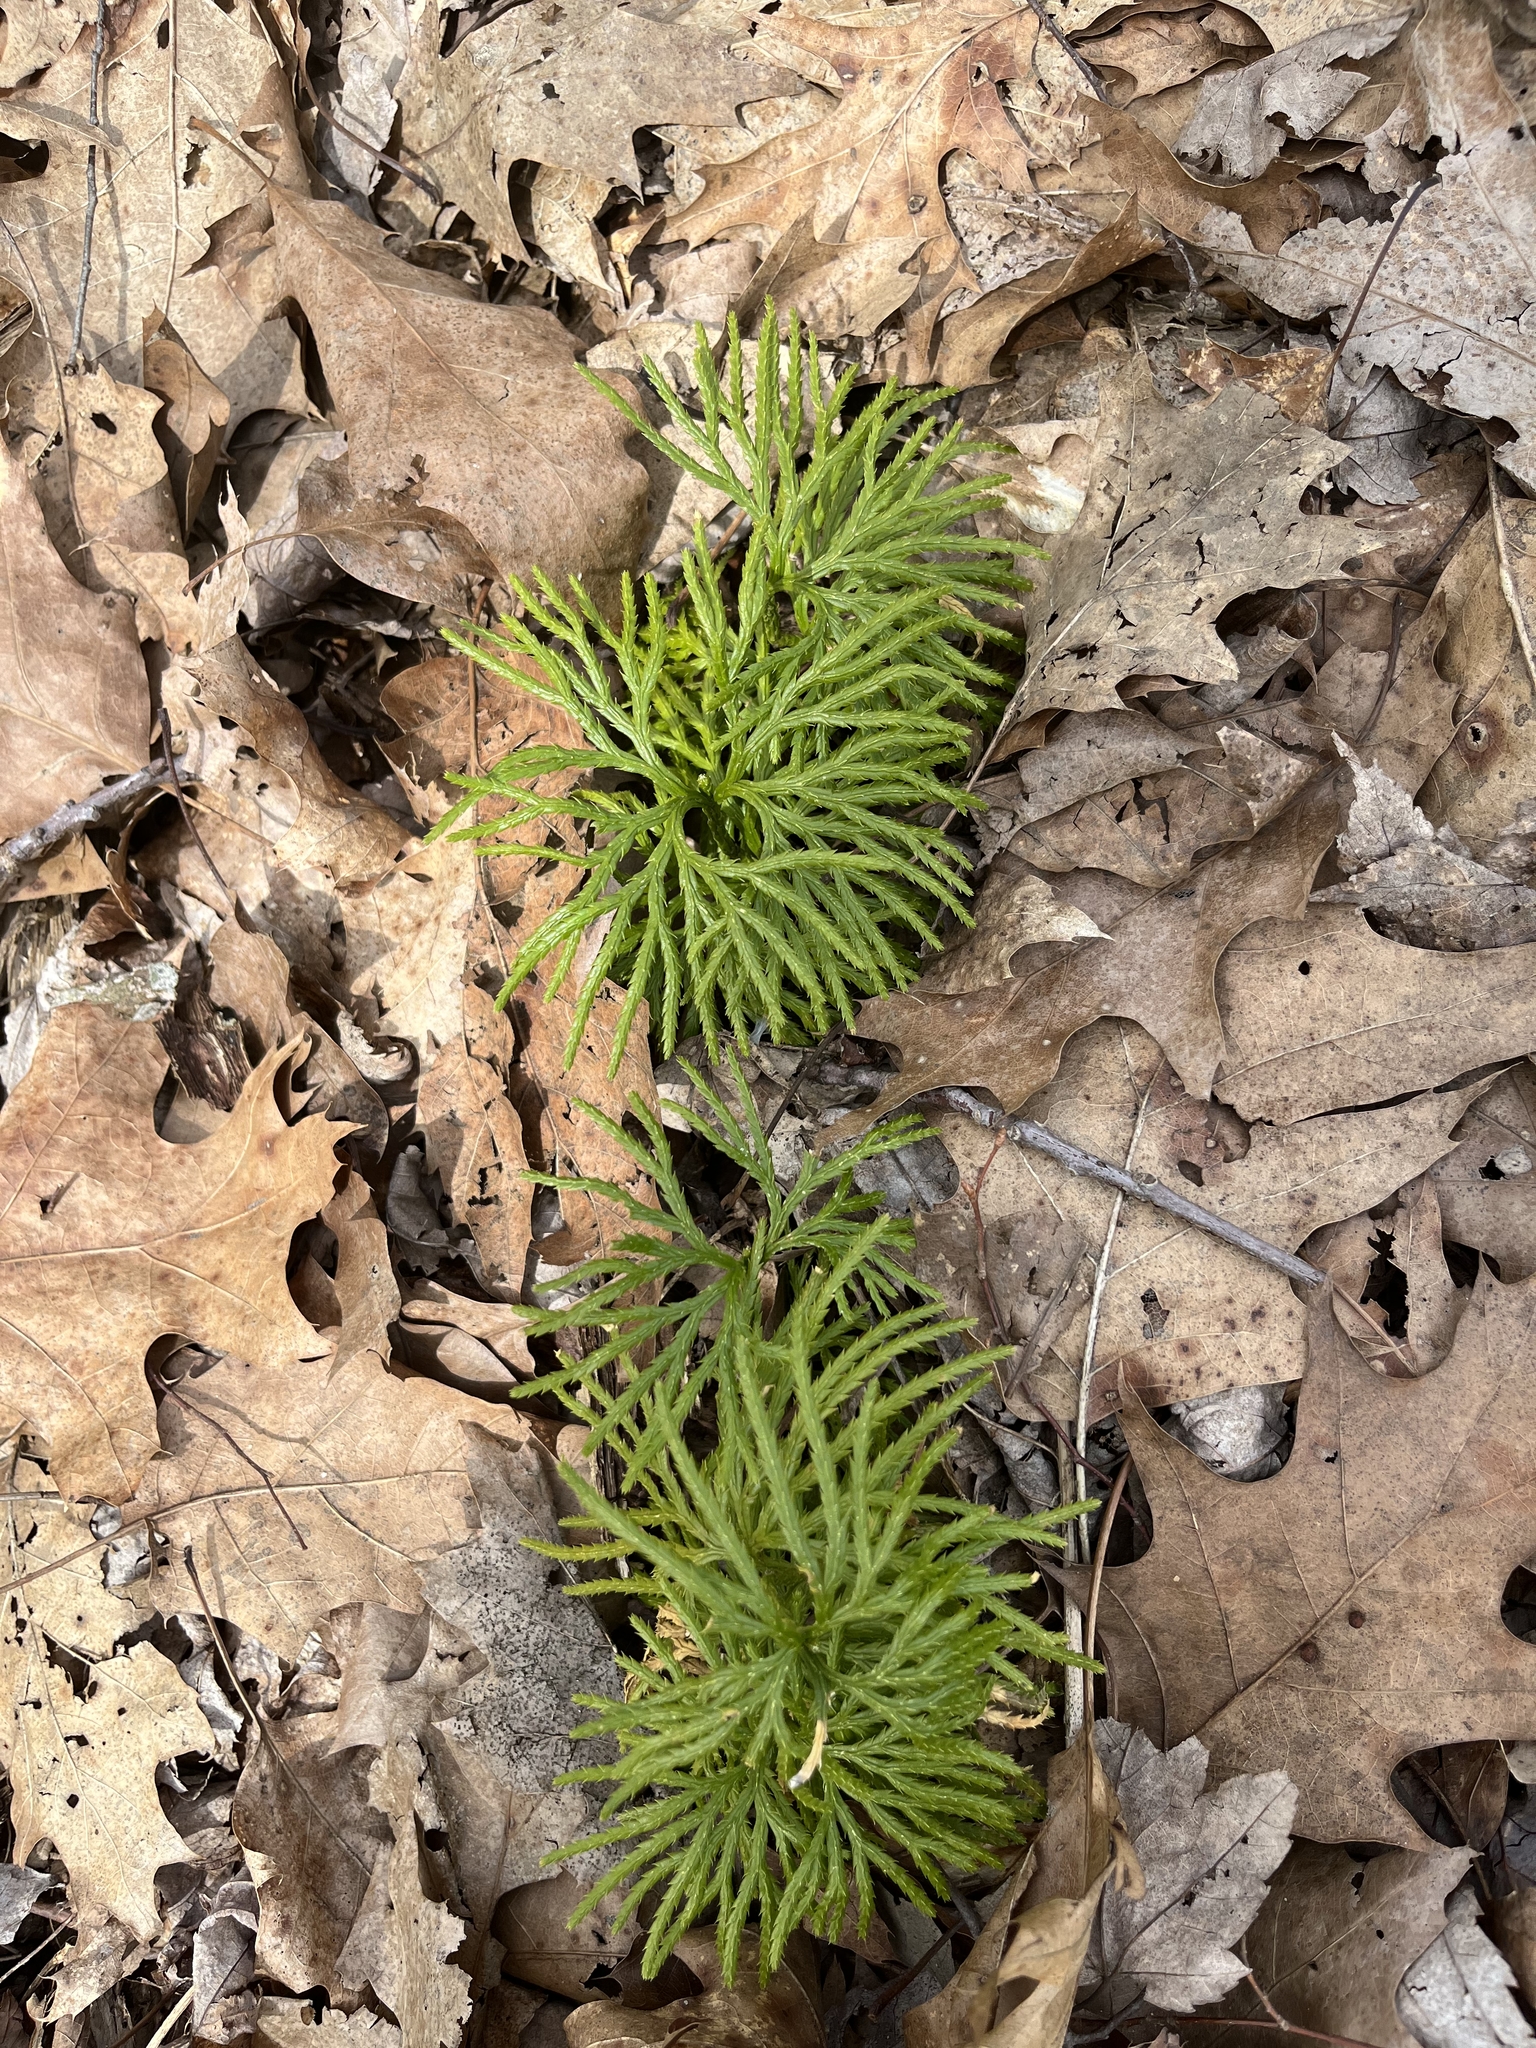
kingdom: Plantae
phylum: Tracheophyta
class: Lycopodiopsida
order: Lycopodiales
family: Lycopodiaceae
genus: Diphasiastrum
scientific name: Diphasiastrum digitatum
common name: Southern running-pine
